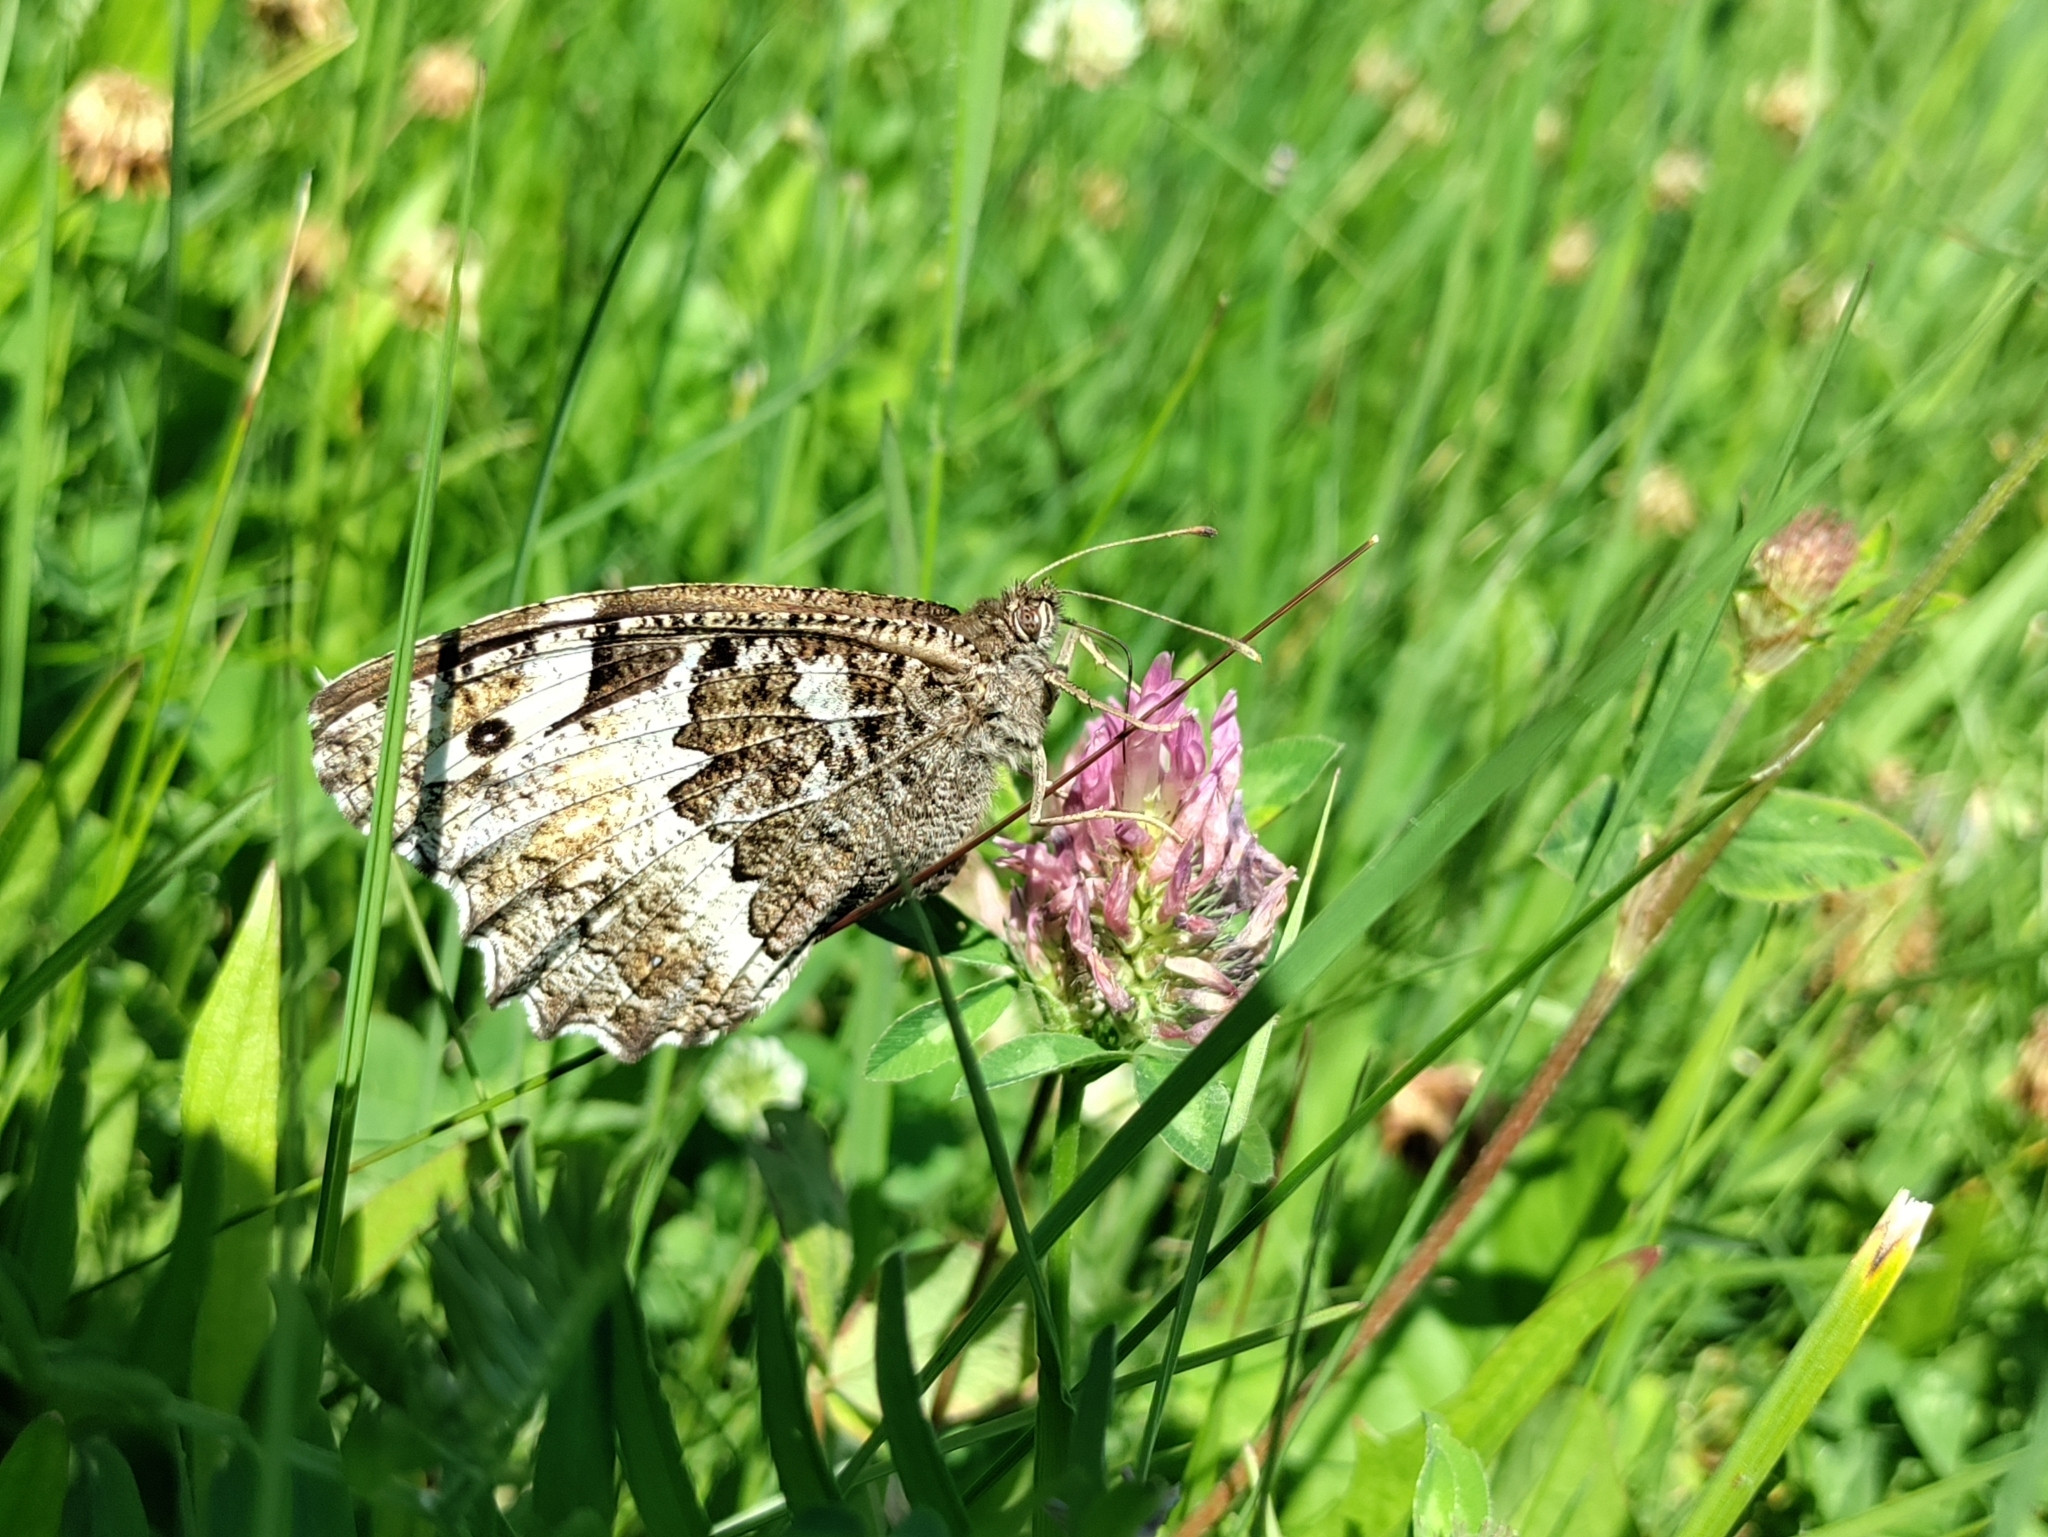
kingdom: Animalia
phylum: Arthropoda
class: Insecta
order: Lepidoptera
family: Lycaenidae
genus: Loweia
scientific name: Loweia tityrus
